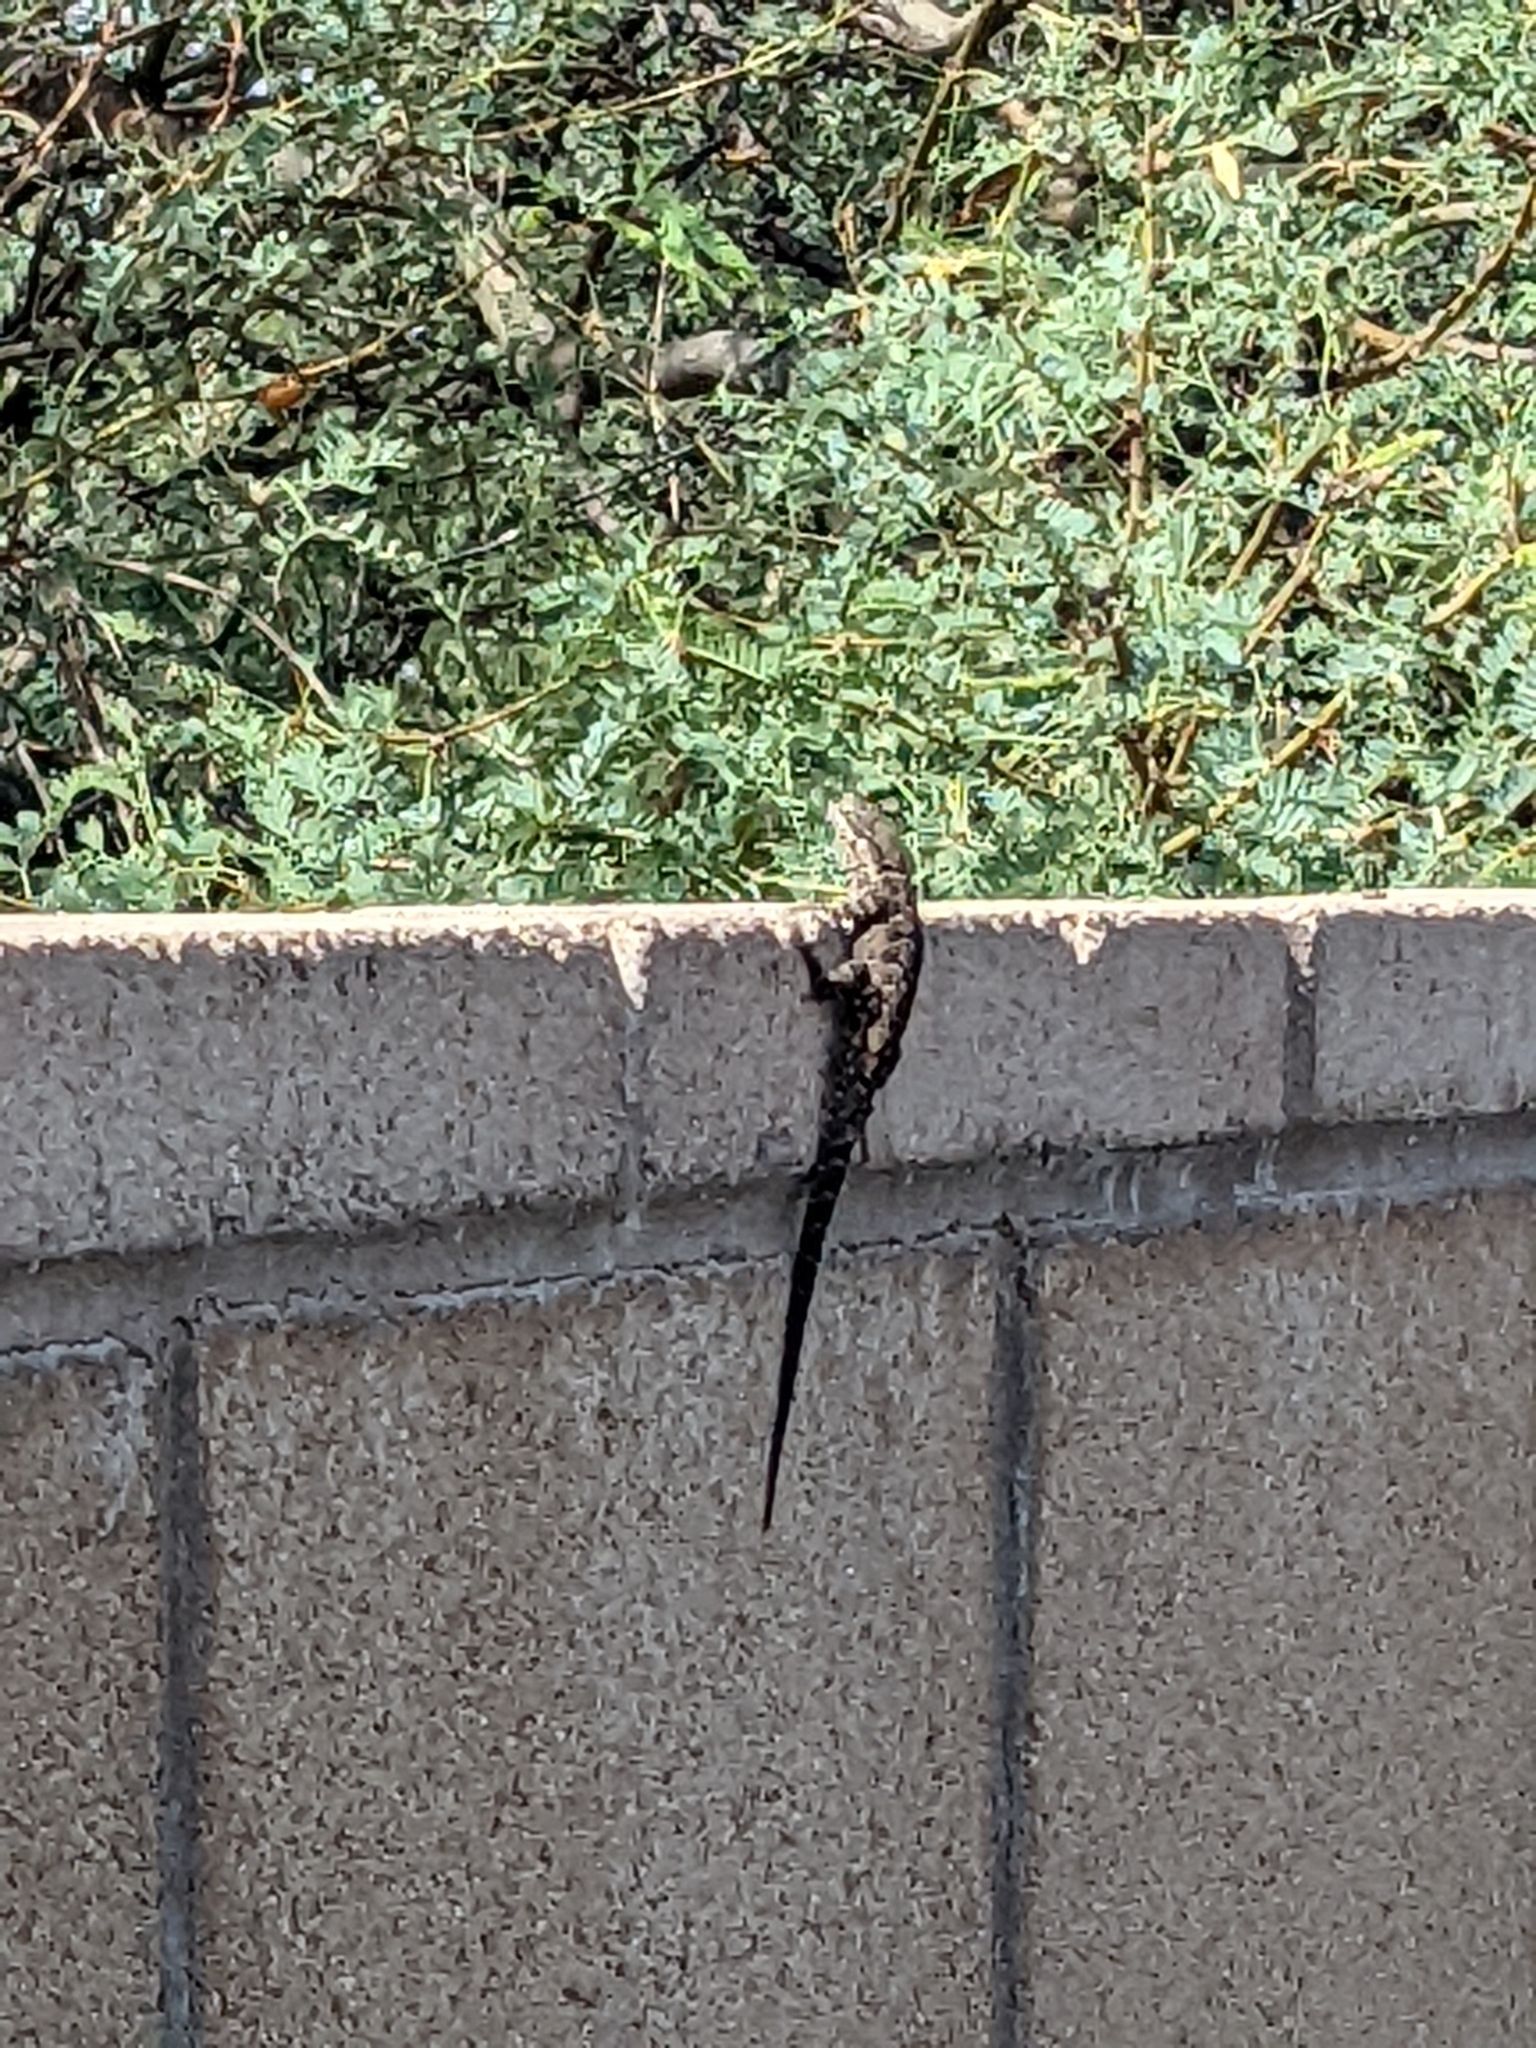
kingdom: Animalia
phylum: Chordata
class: Squamata
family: Phrynosomatidae
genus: Urosaurus
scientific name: Urosaurus ornatus
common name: Ornate tree lizard
